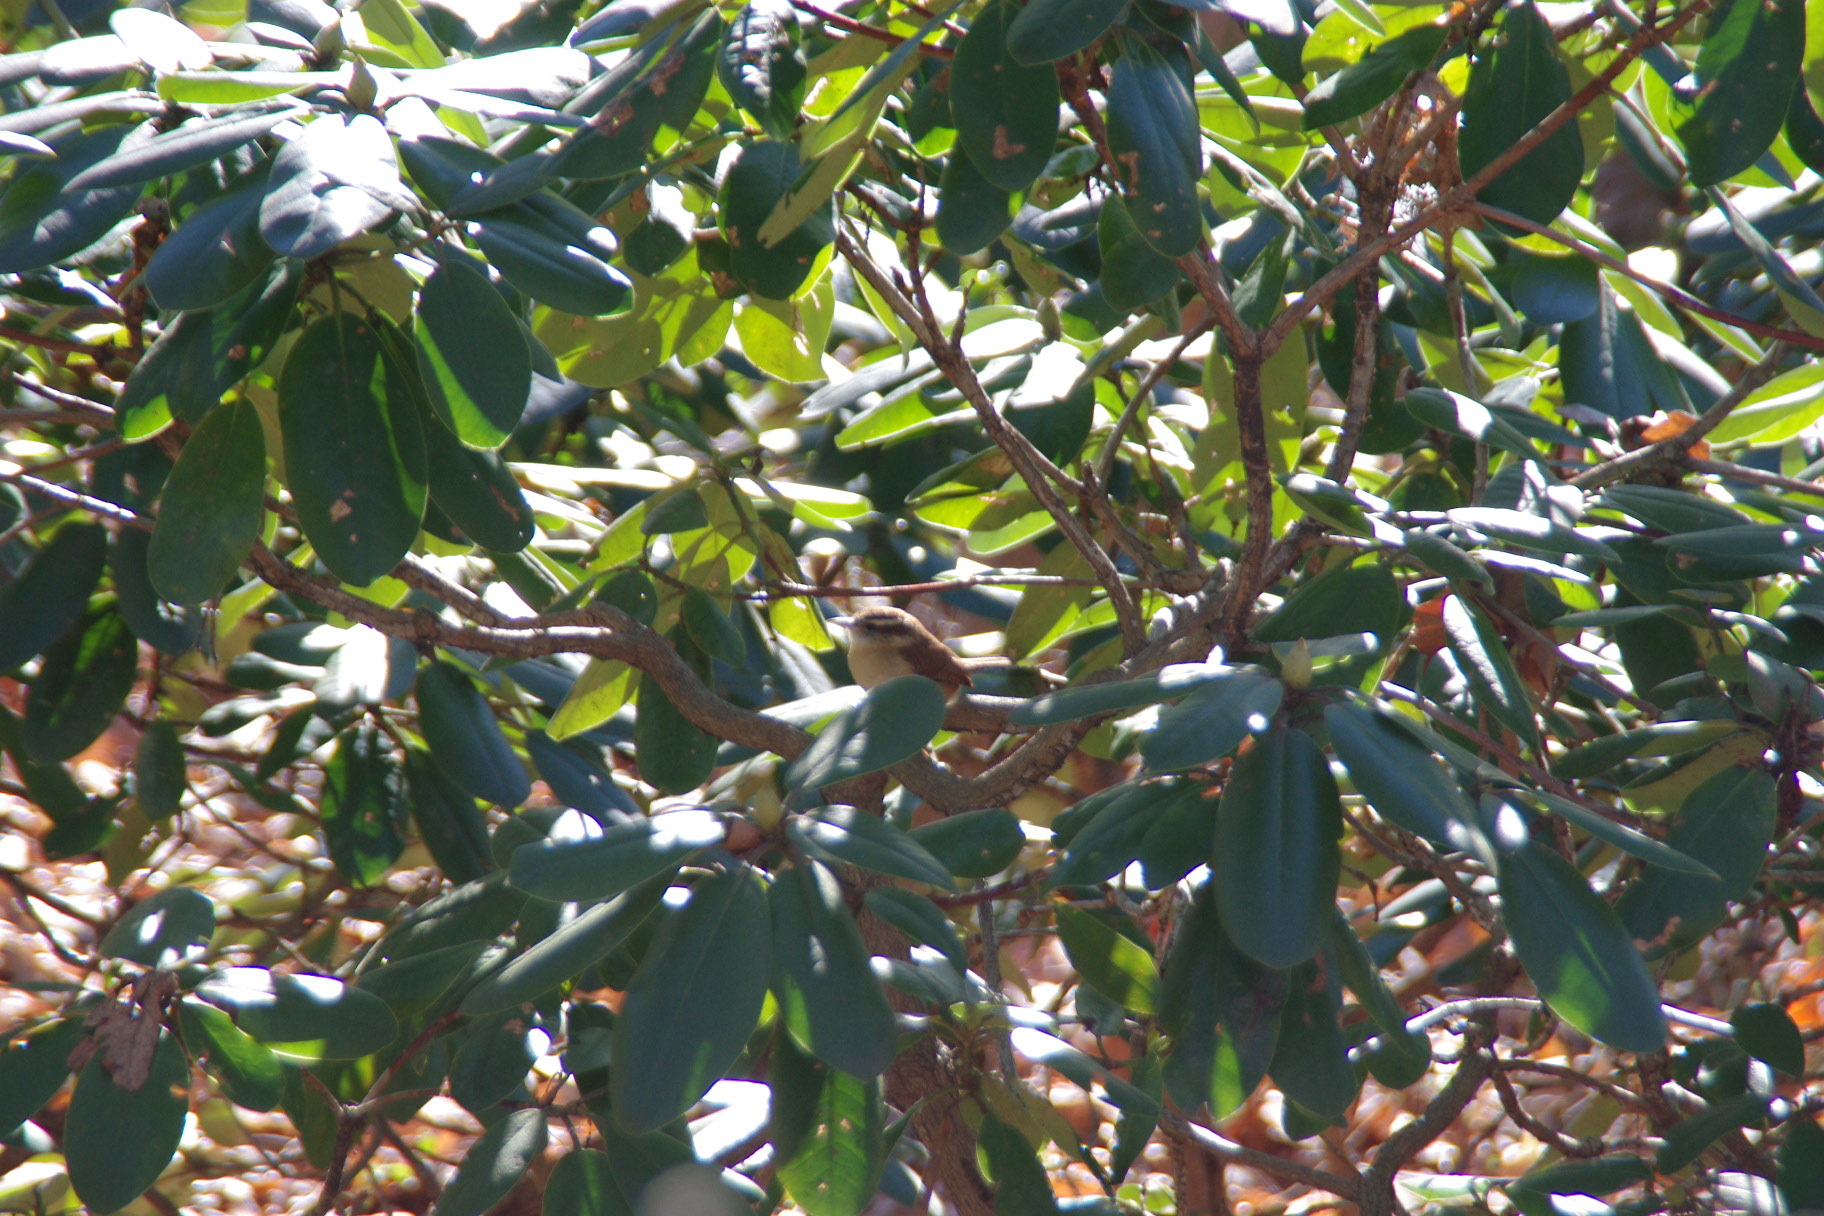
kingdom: Animalia
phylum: Chordata
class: Aves
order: Passeriformes
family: Troglodytidae
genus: Thryothorus
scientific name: Thryothorus ludovicianus
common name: Carolina wren
